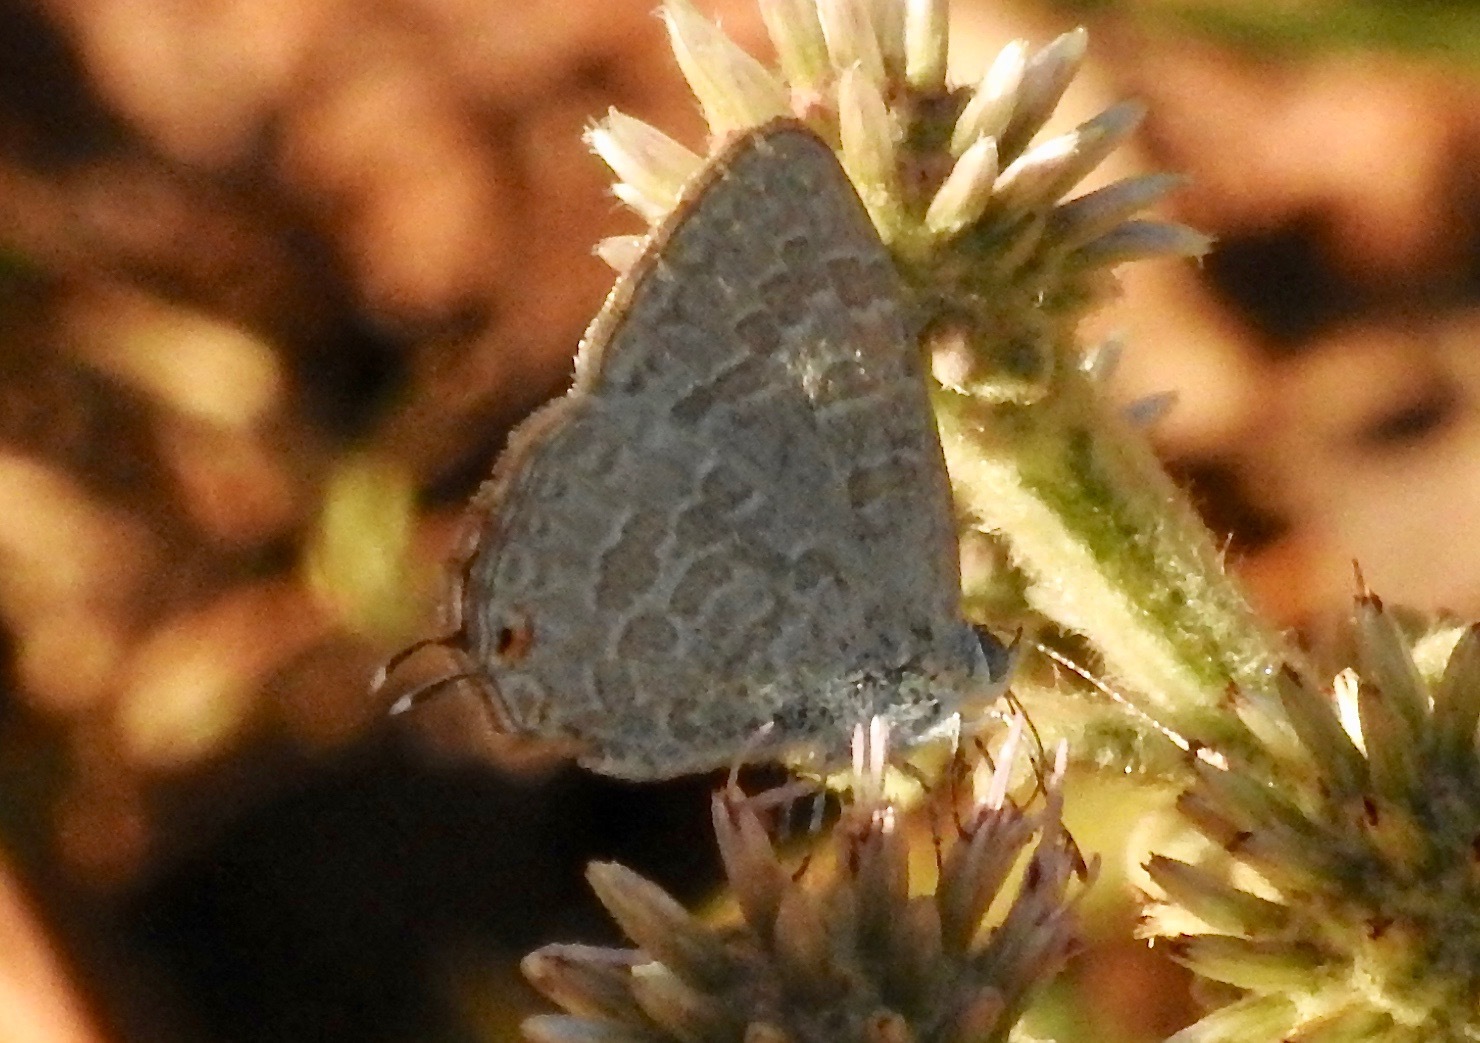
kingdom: Animalia
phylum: Arthropoda
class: Insecta
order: Lepidoptera
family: Lycaenidae
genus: Catopyrops
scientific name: Catopyrops florinda
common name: Speckled line-blue
